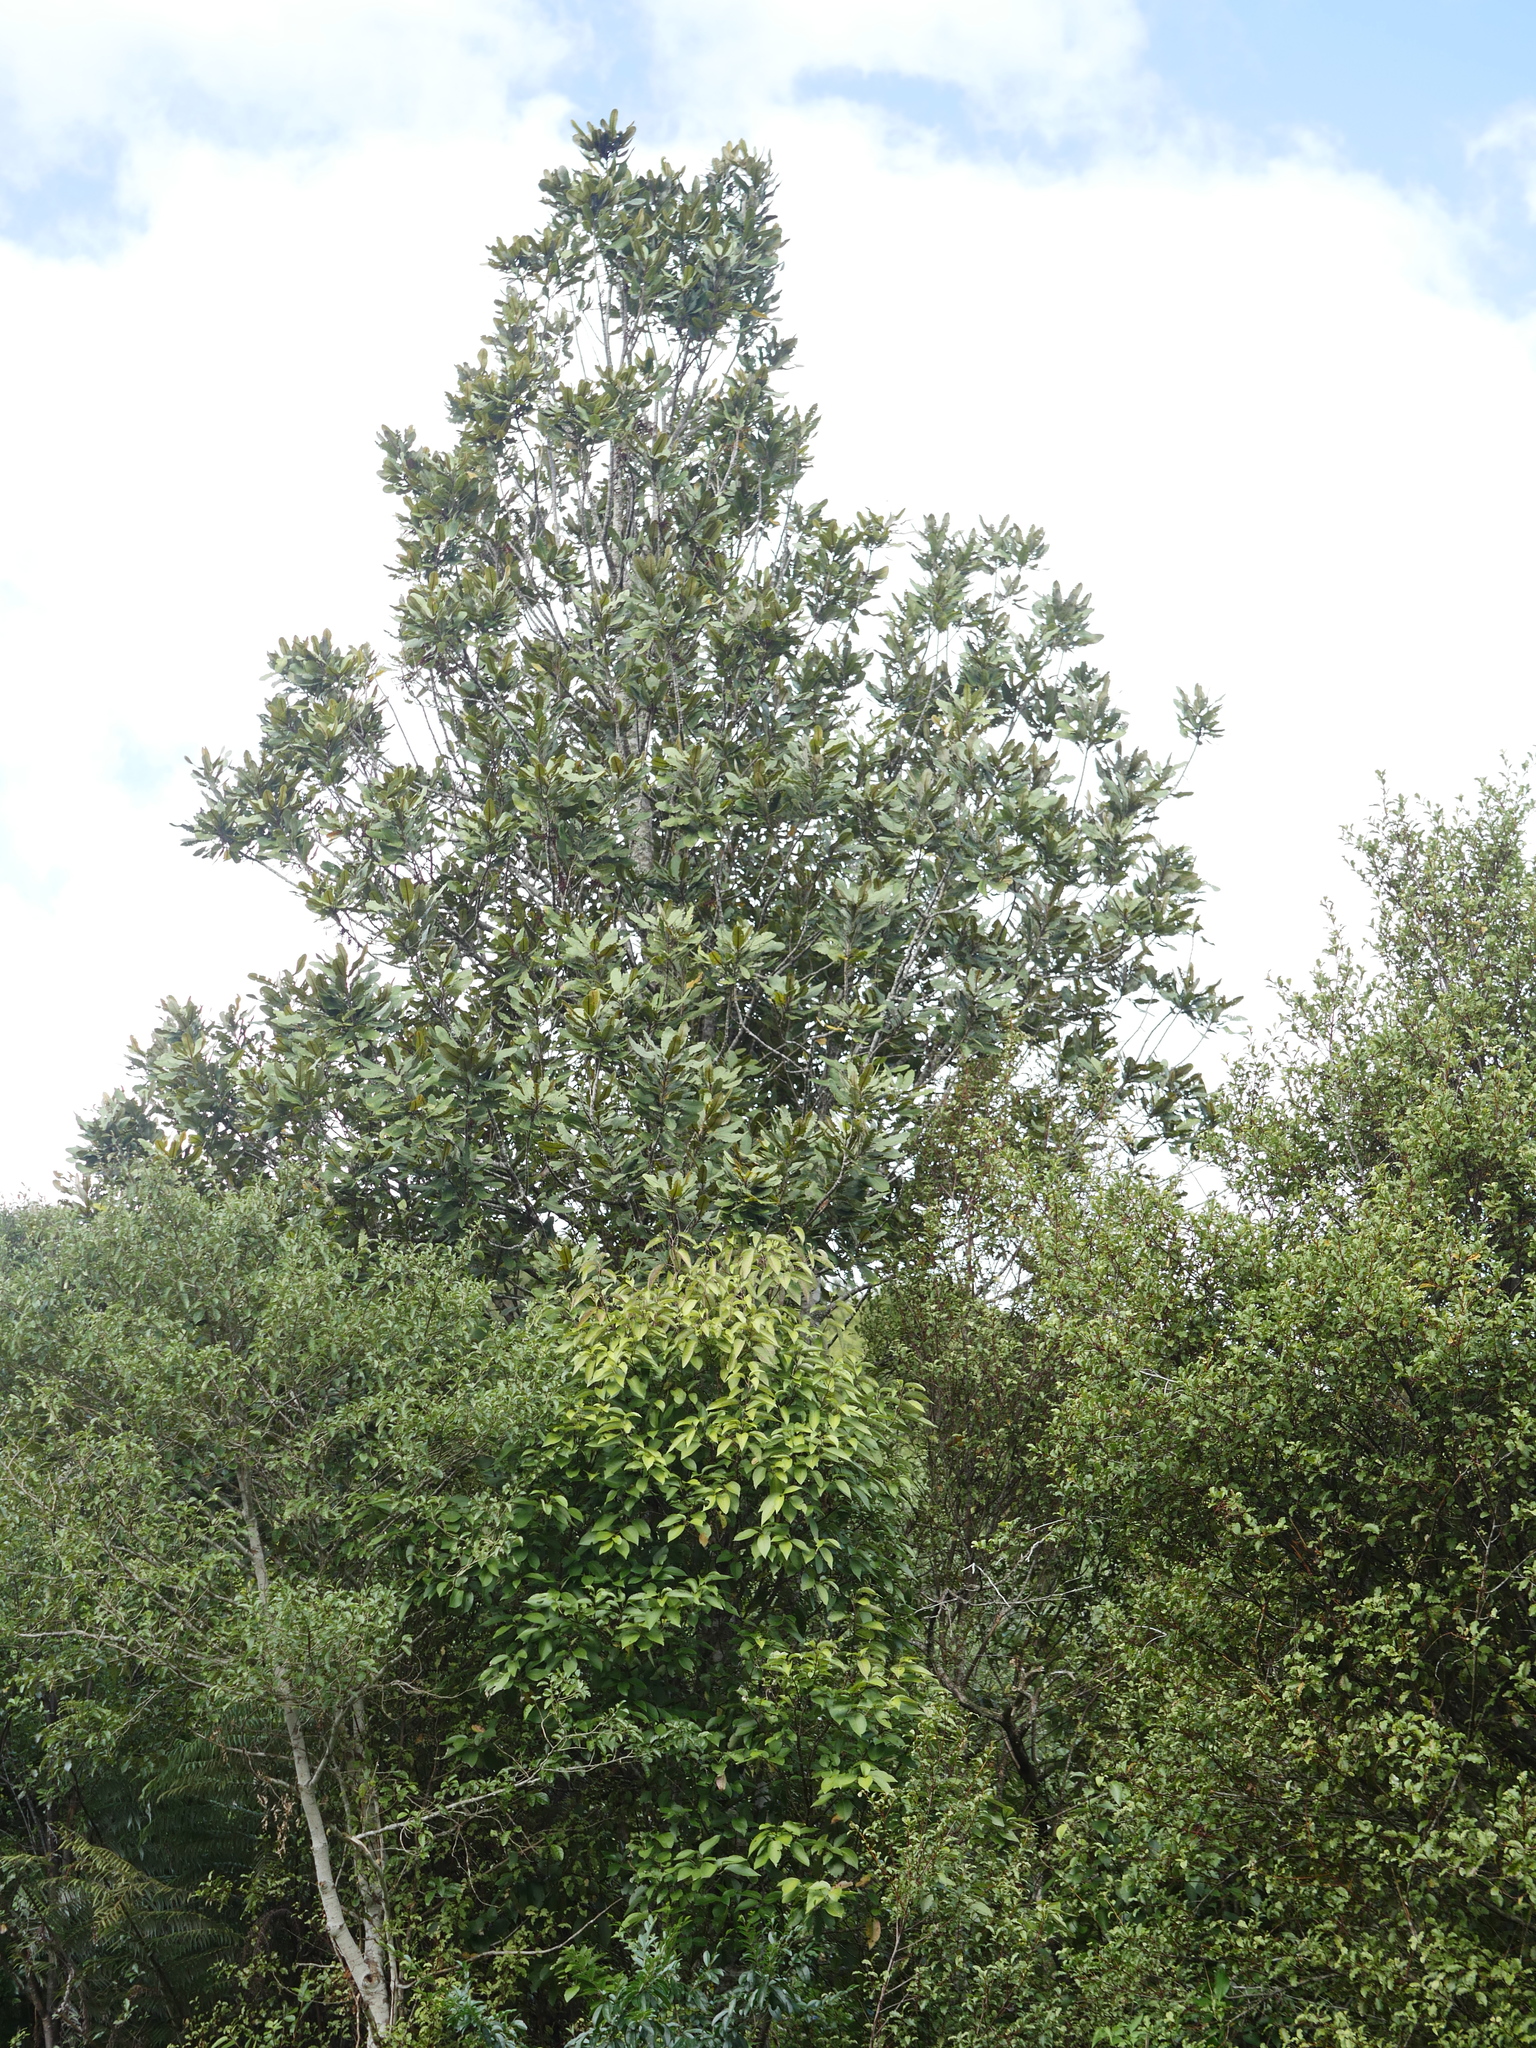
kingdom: Plantae
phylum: Tracheophyta
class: Magnoliopsida
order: Proteales
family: Proteaceae
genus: Knightia
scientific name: Knightia excelsa
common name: New zealand-honeysuckle
